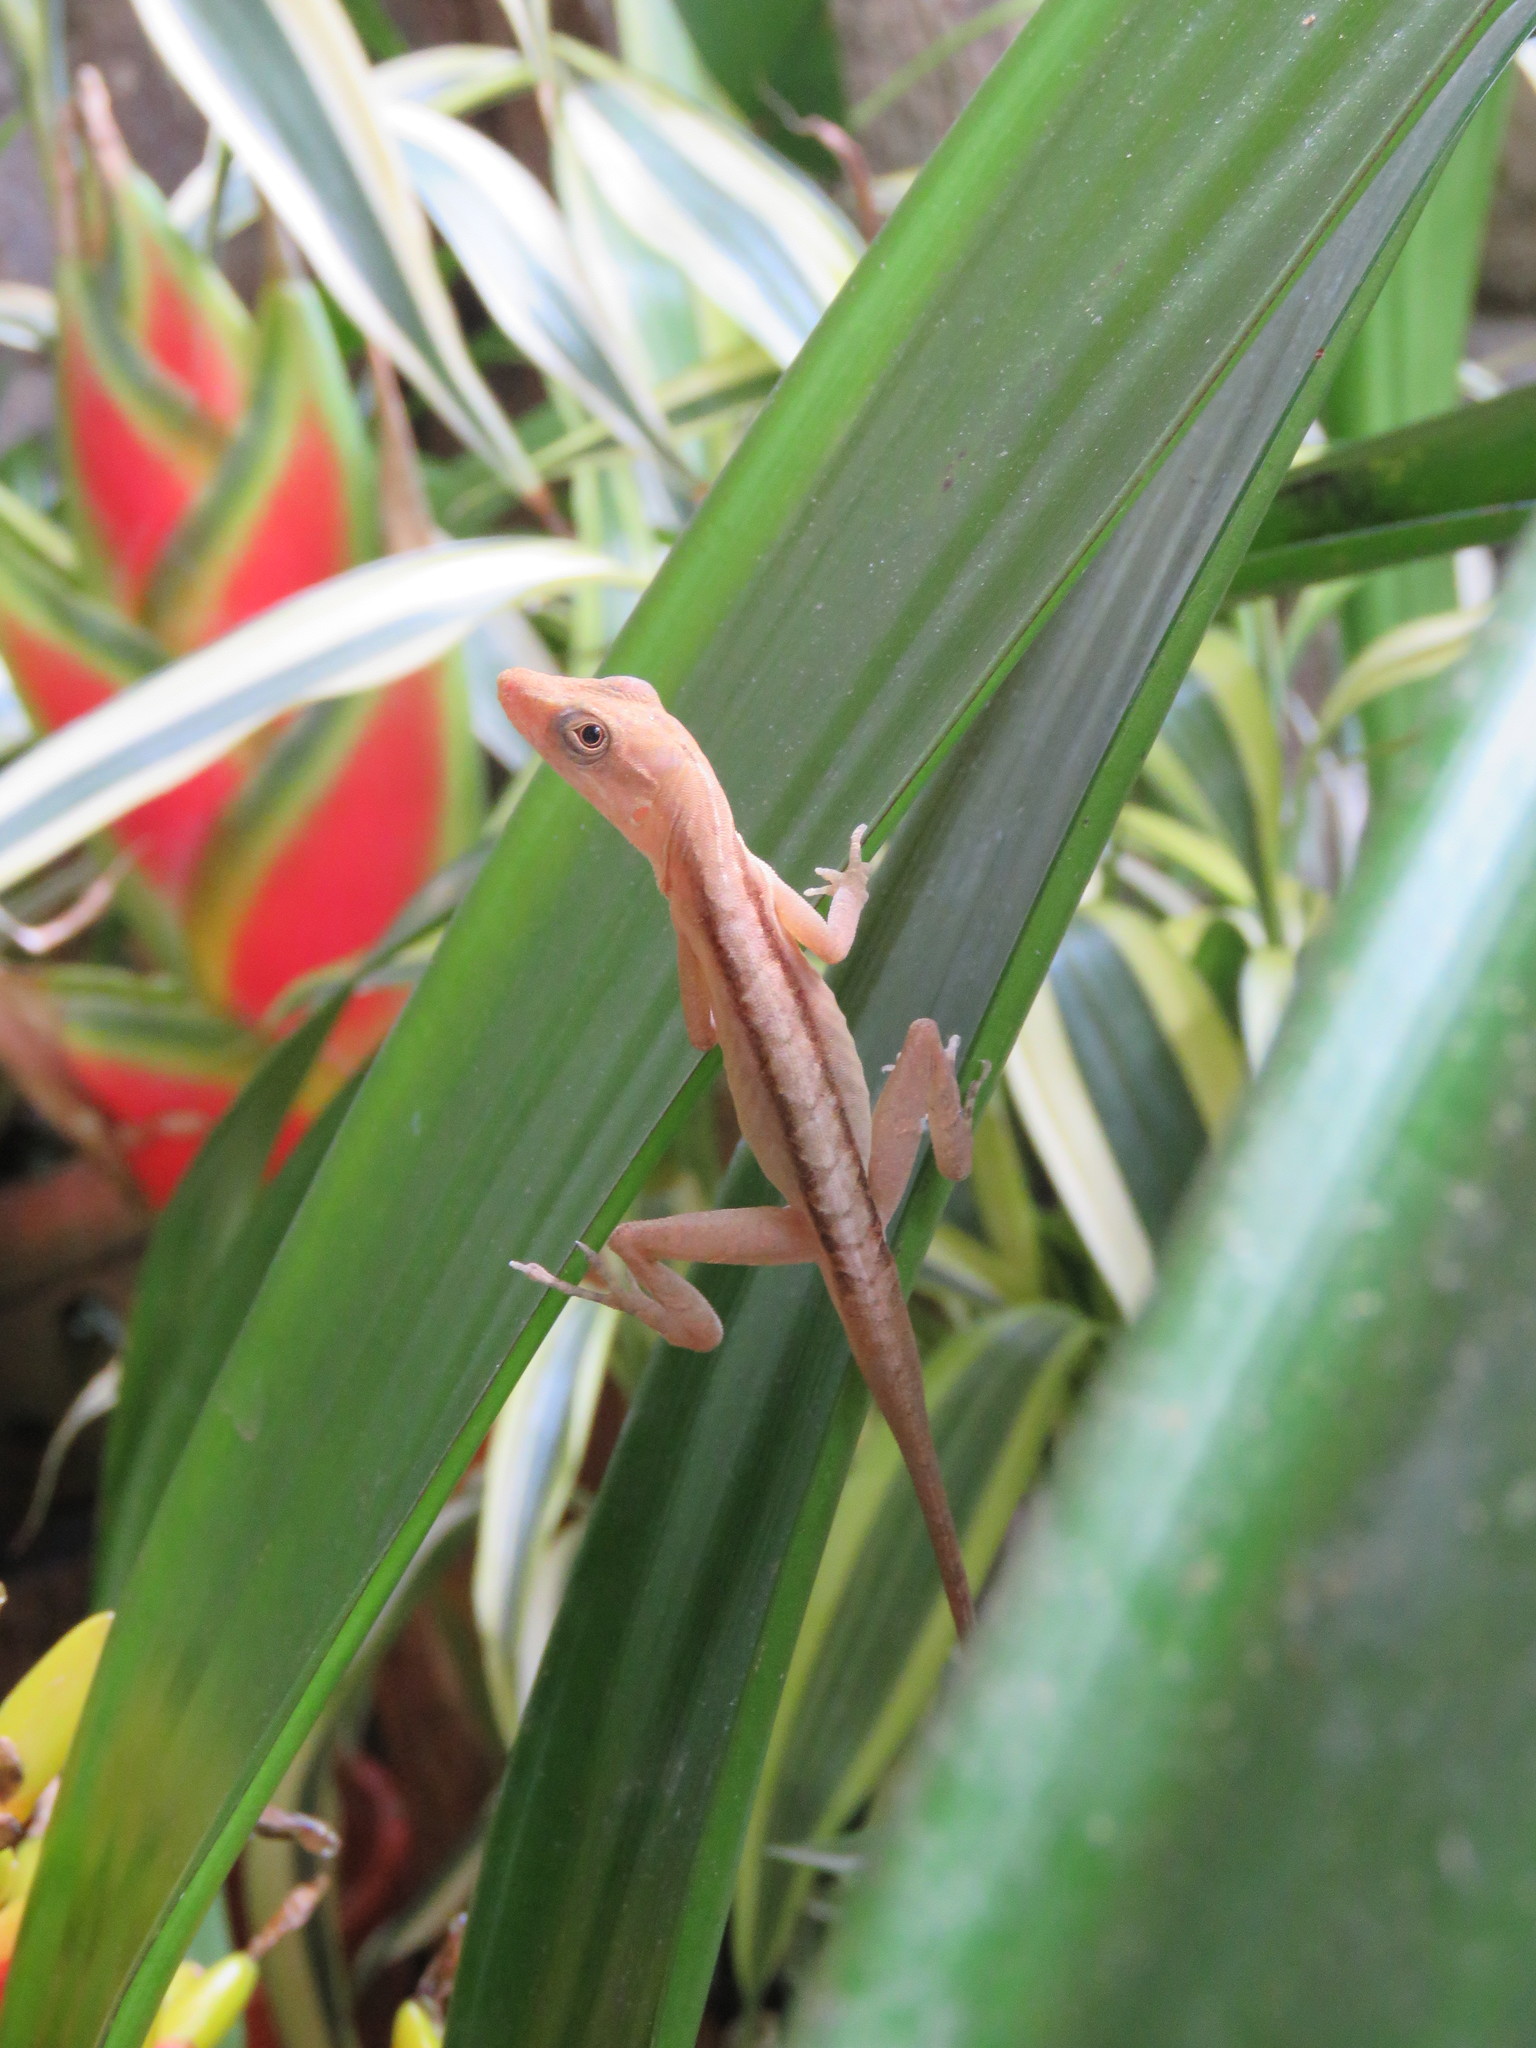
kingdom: Animalia
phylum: Chordata
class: Squamata
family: Dactyloidae
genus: Anolis
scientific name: Anolis gaigei
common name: Gaige’s anole
